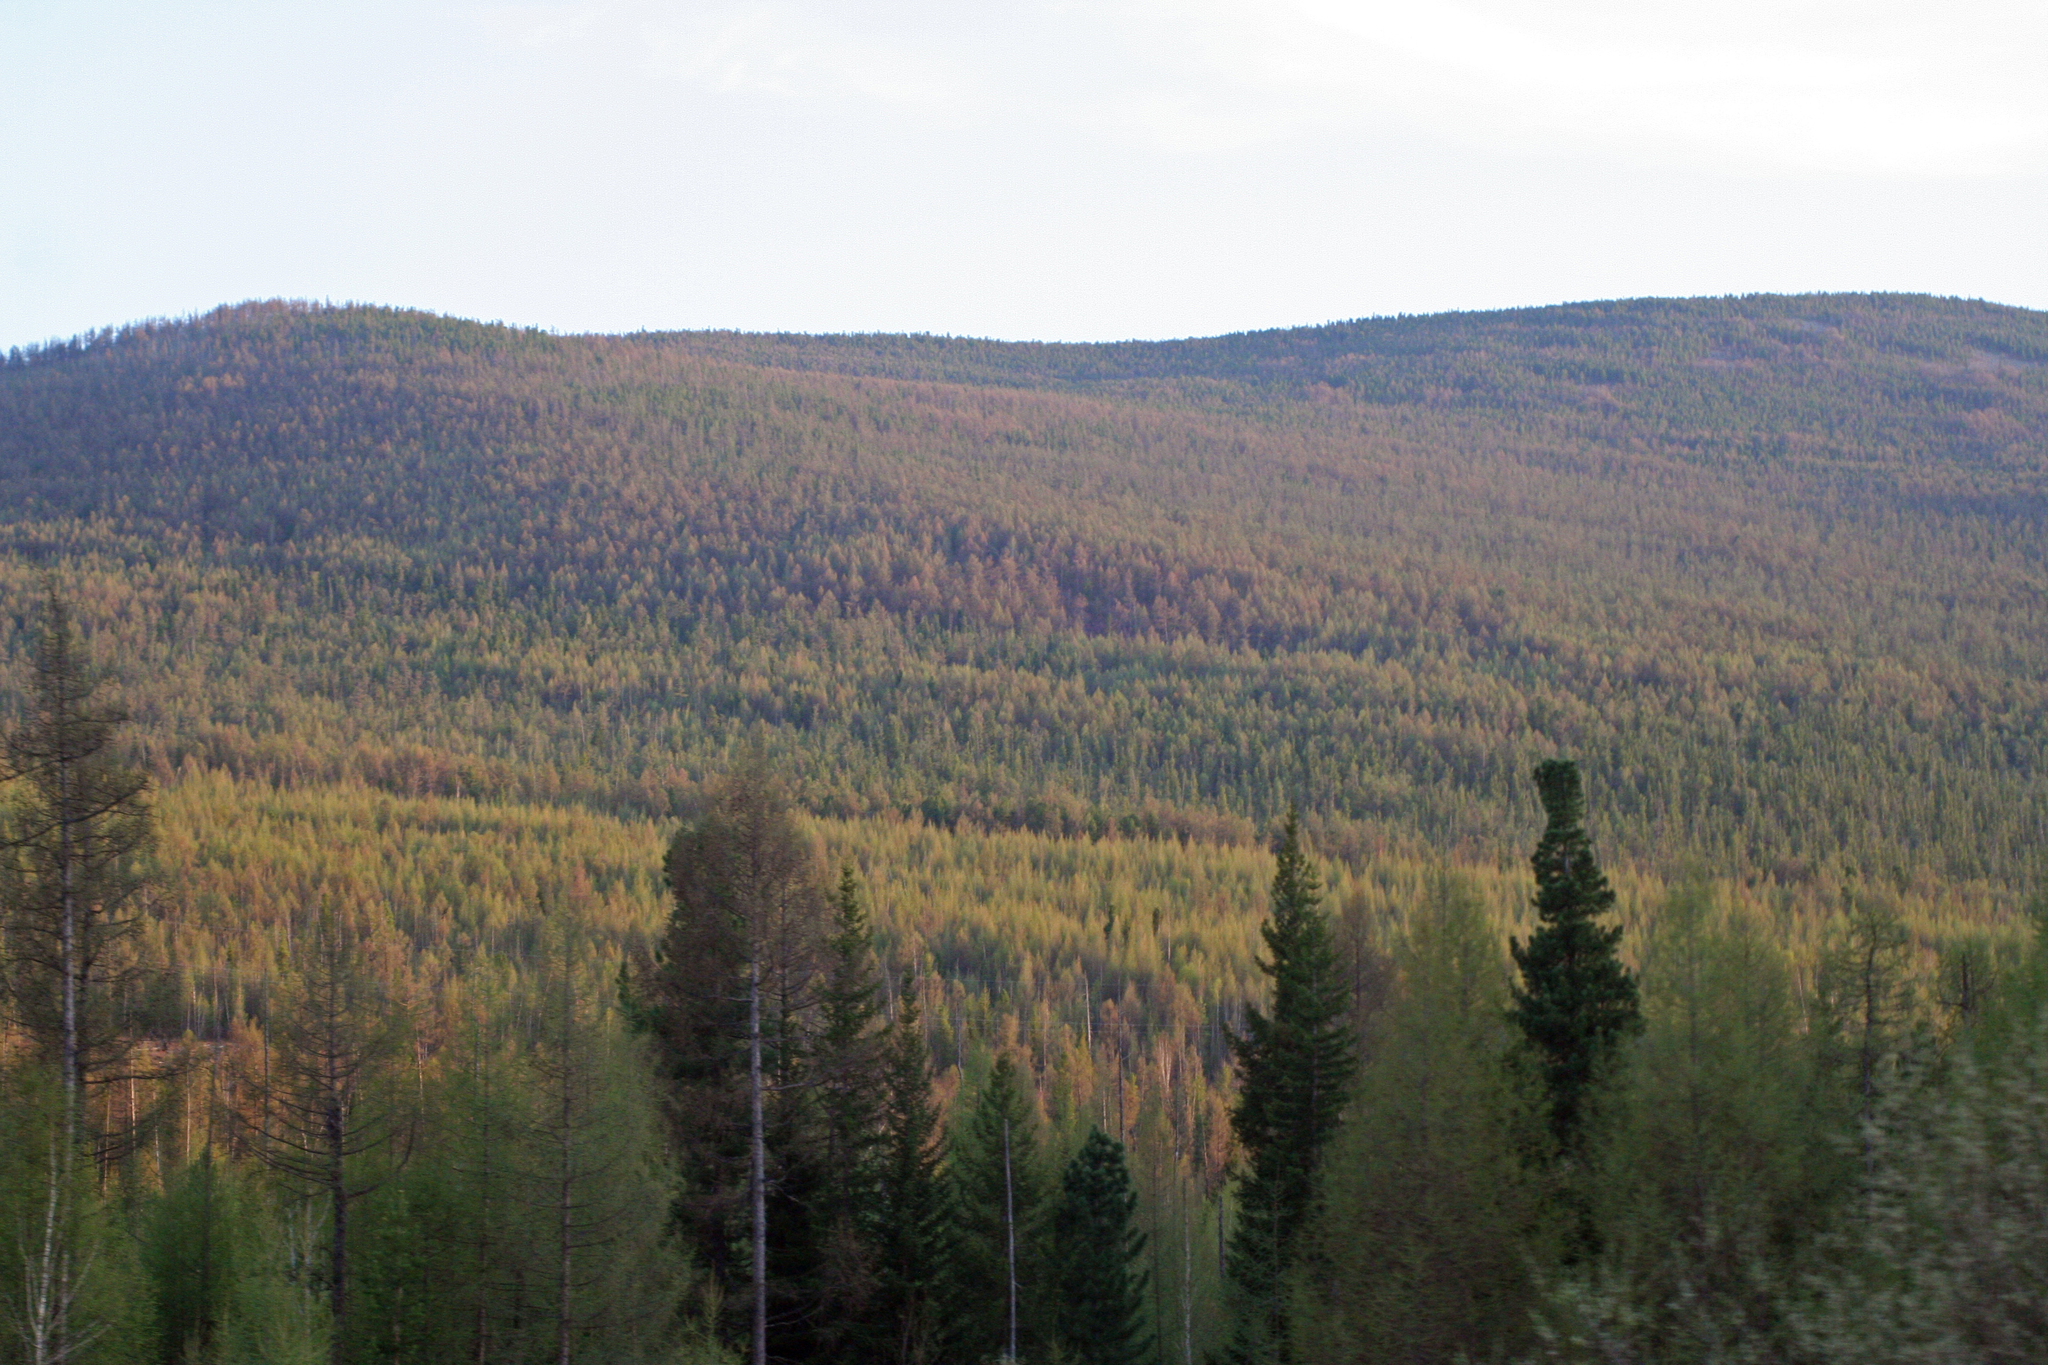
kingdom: Plantae
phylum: Tracheophyta
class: Pinopsida
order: Pinales
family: Pinaceae
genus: Pinus
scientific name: Pinus sibirica
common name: Siberian pine
